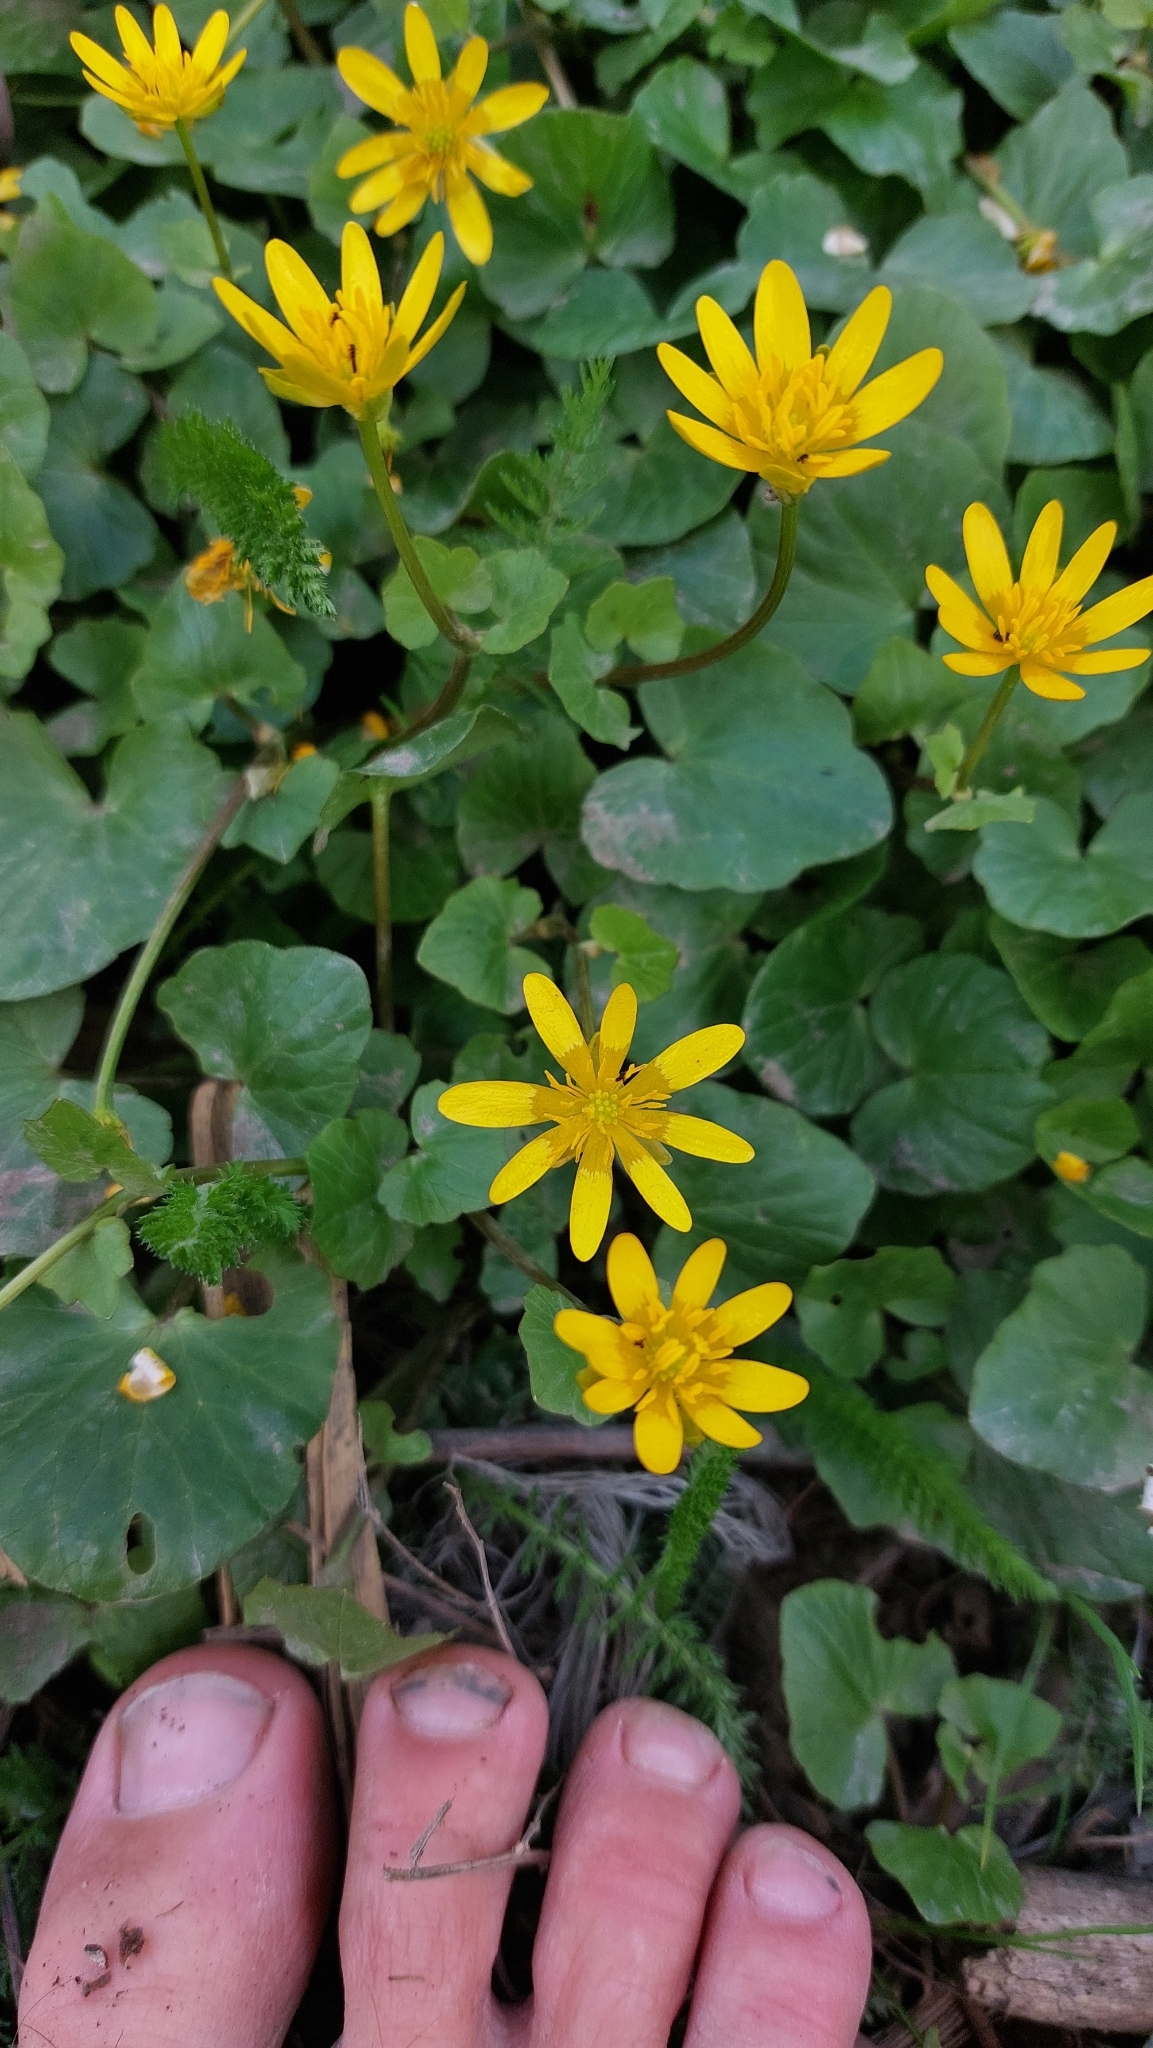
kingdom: Plantae
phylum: Tracheophyta
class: Magnoliopsida
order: Ranunculales
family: Ranunculaceae
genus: Ficaria
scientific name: Ficaria verna
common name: Lesser celandine
